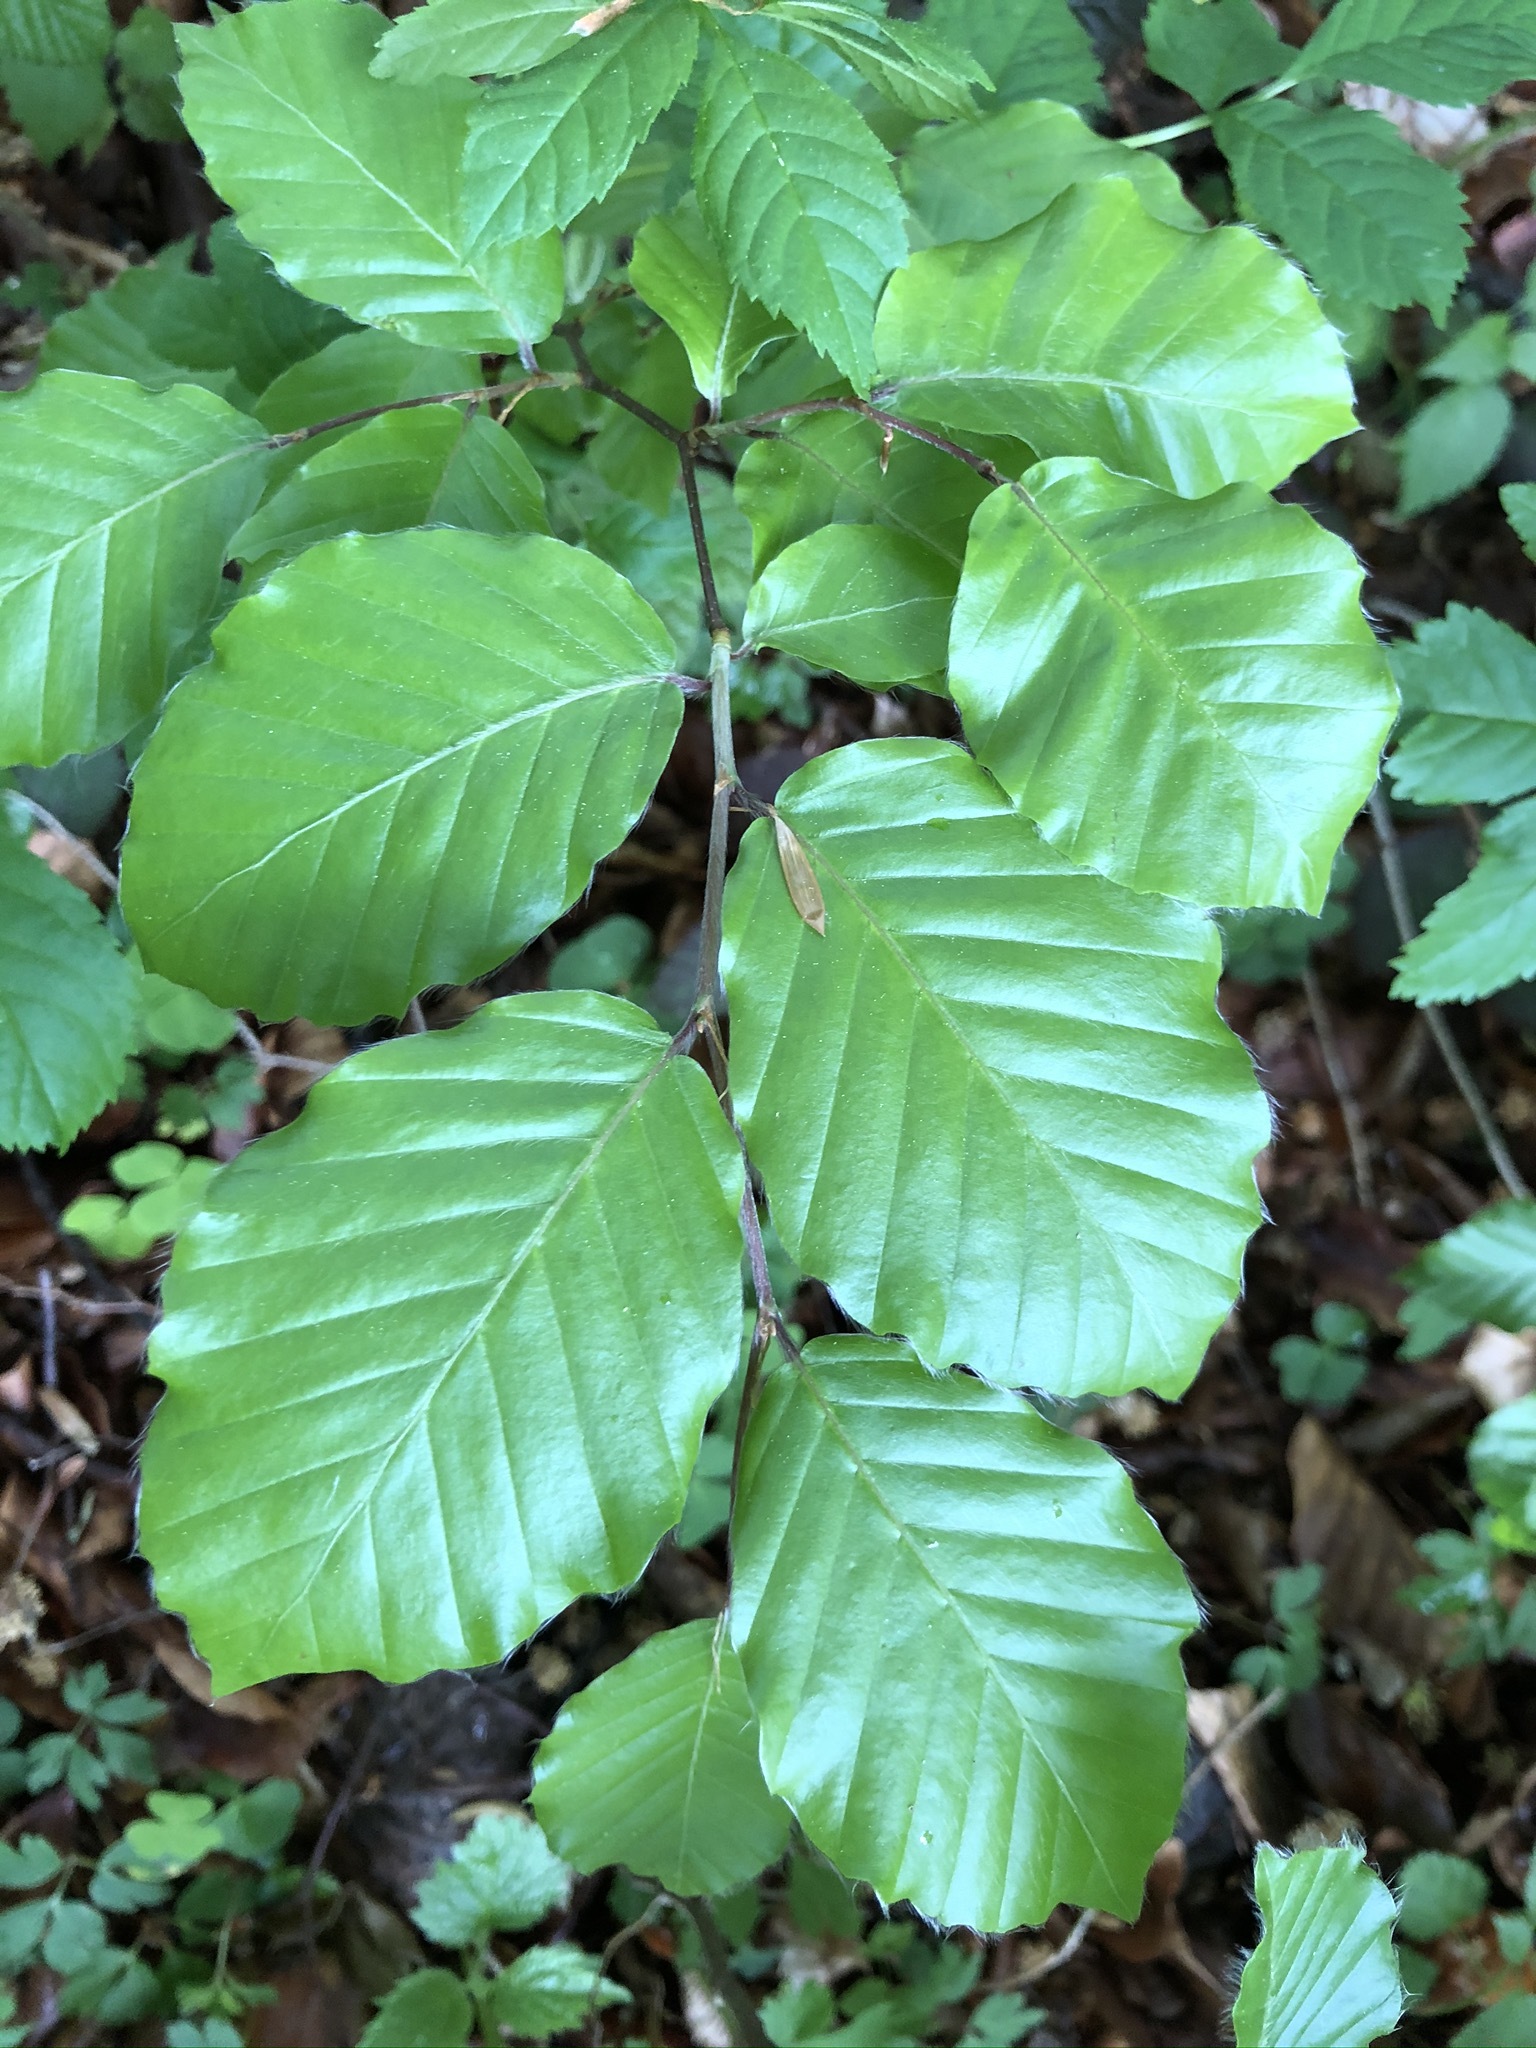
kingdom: Plantae
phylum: Tracheophyta
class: Magnoliopsida
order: Fagales
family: Fagaceae
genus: Fagus
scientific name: Fagus sylvatica
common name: Beech
